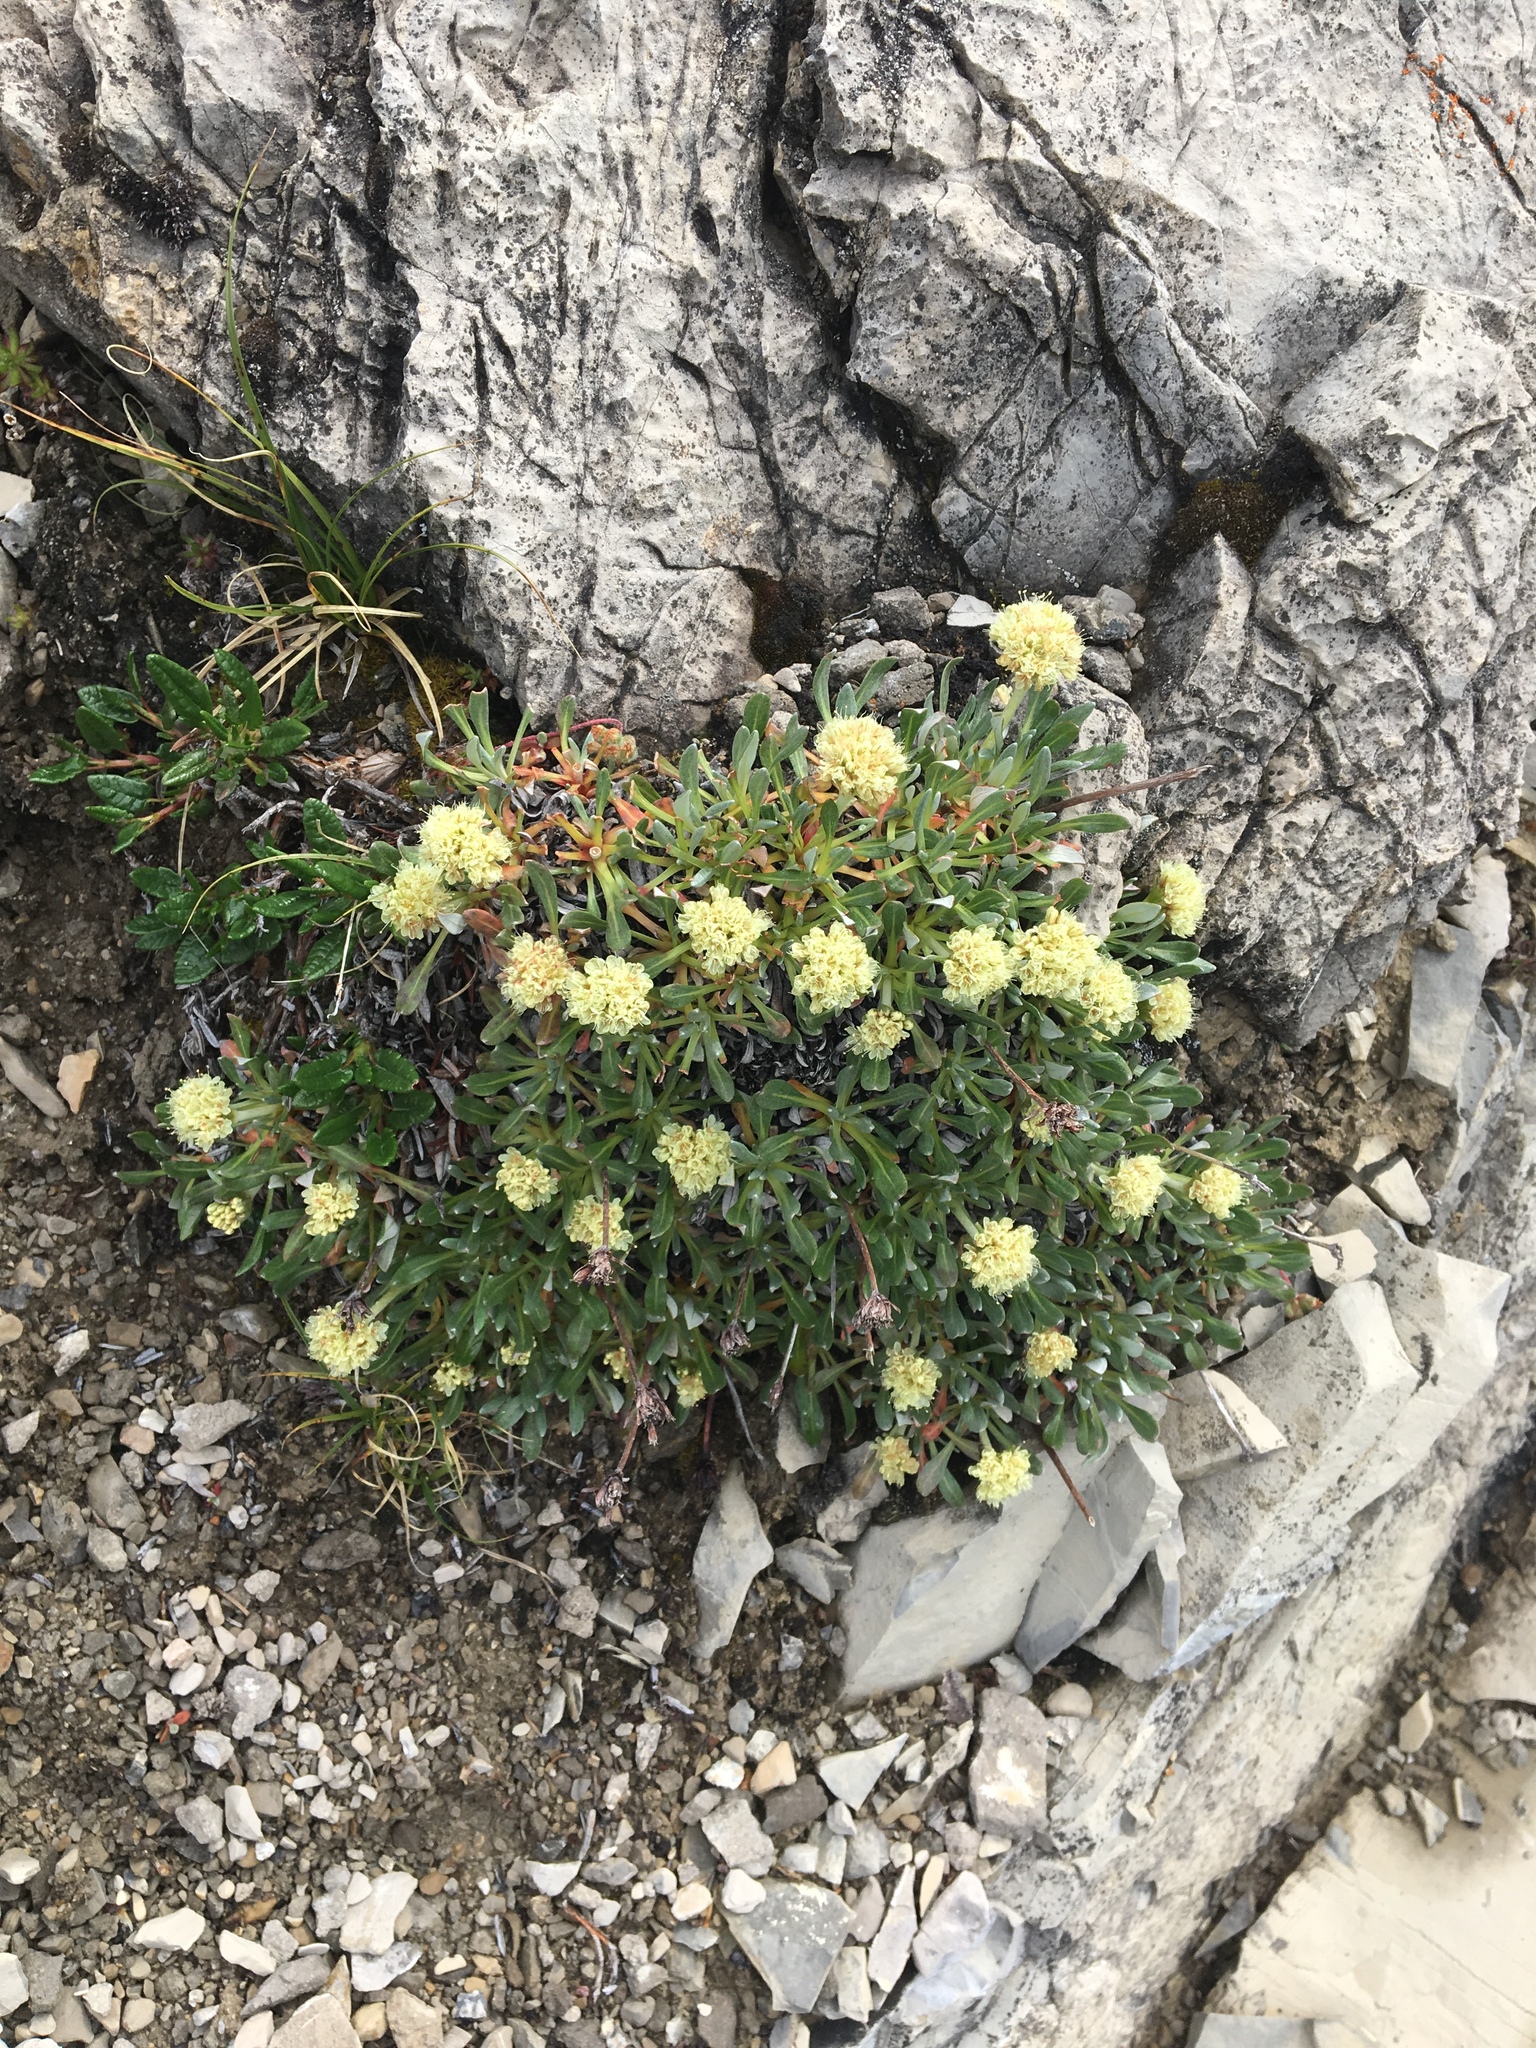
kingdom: Plantae
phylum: Tracheophyta
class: Magnoliopsida
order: Caryophyllales
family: Polygonaceae
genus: Eriogonum
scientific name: Eriogonum androsaceum
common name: Rock-jasmine wild buckwheat
